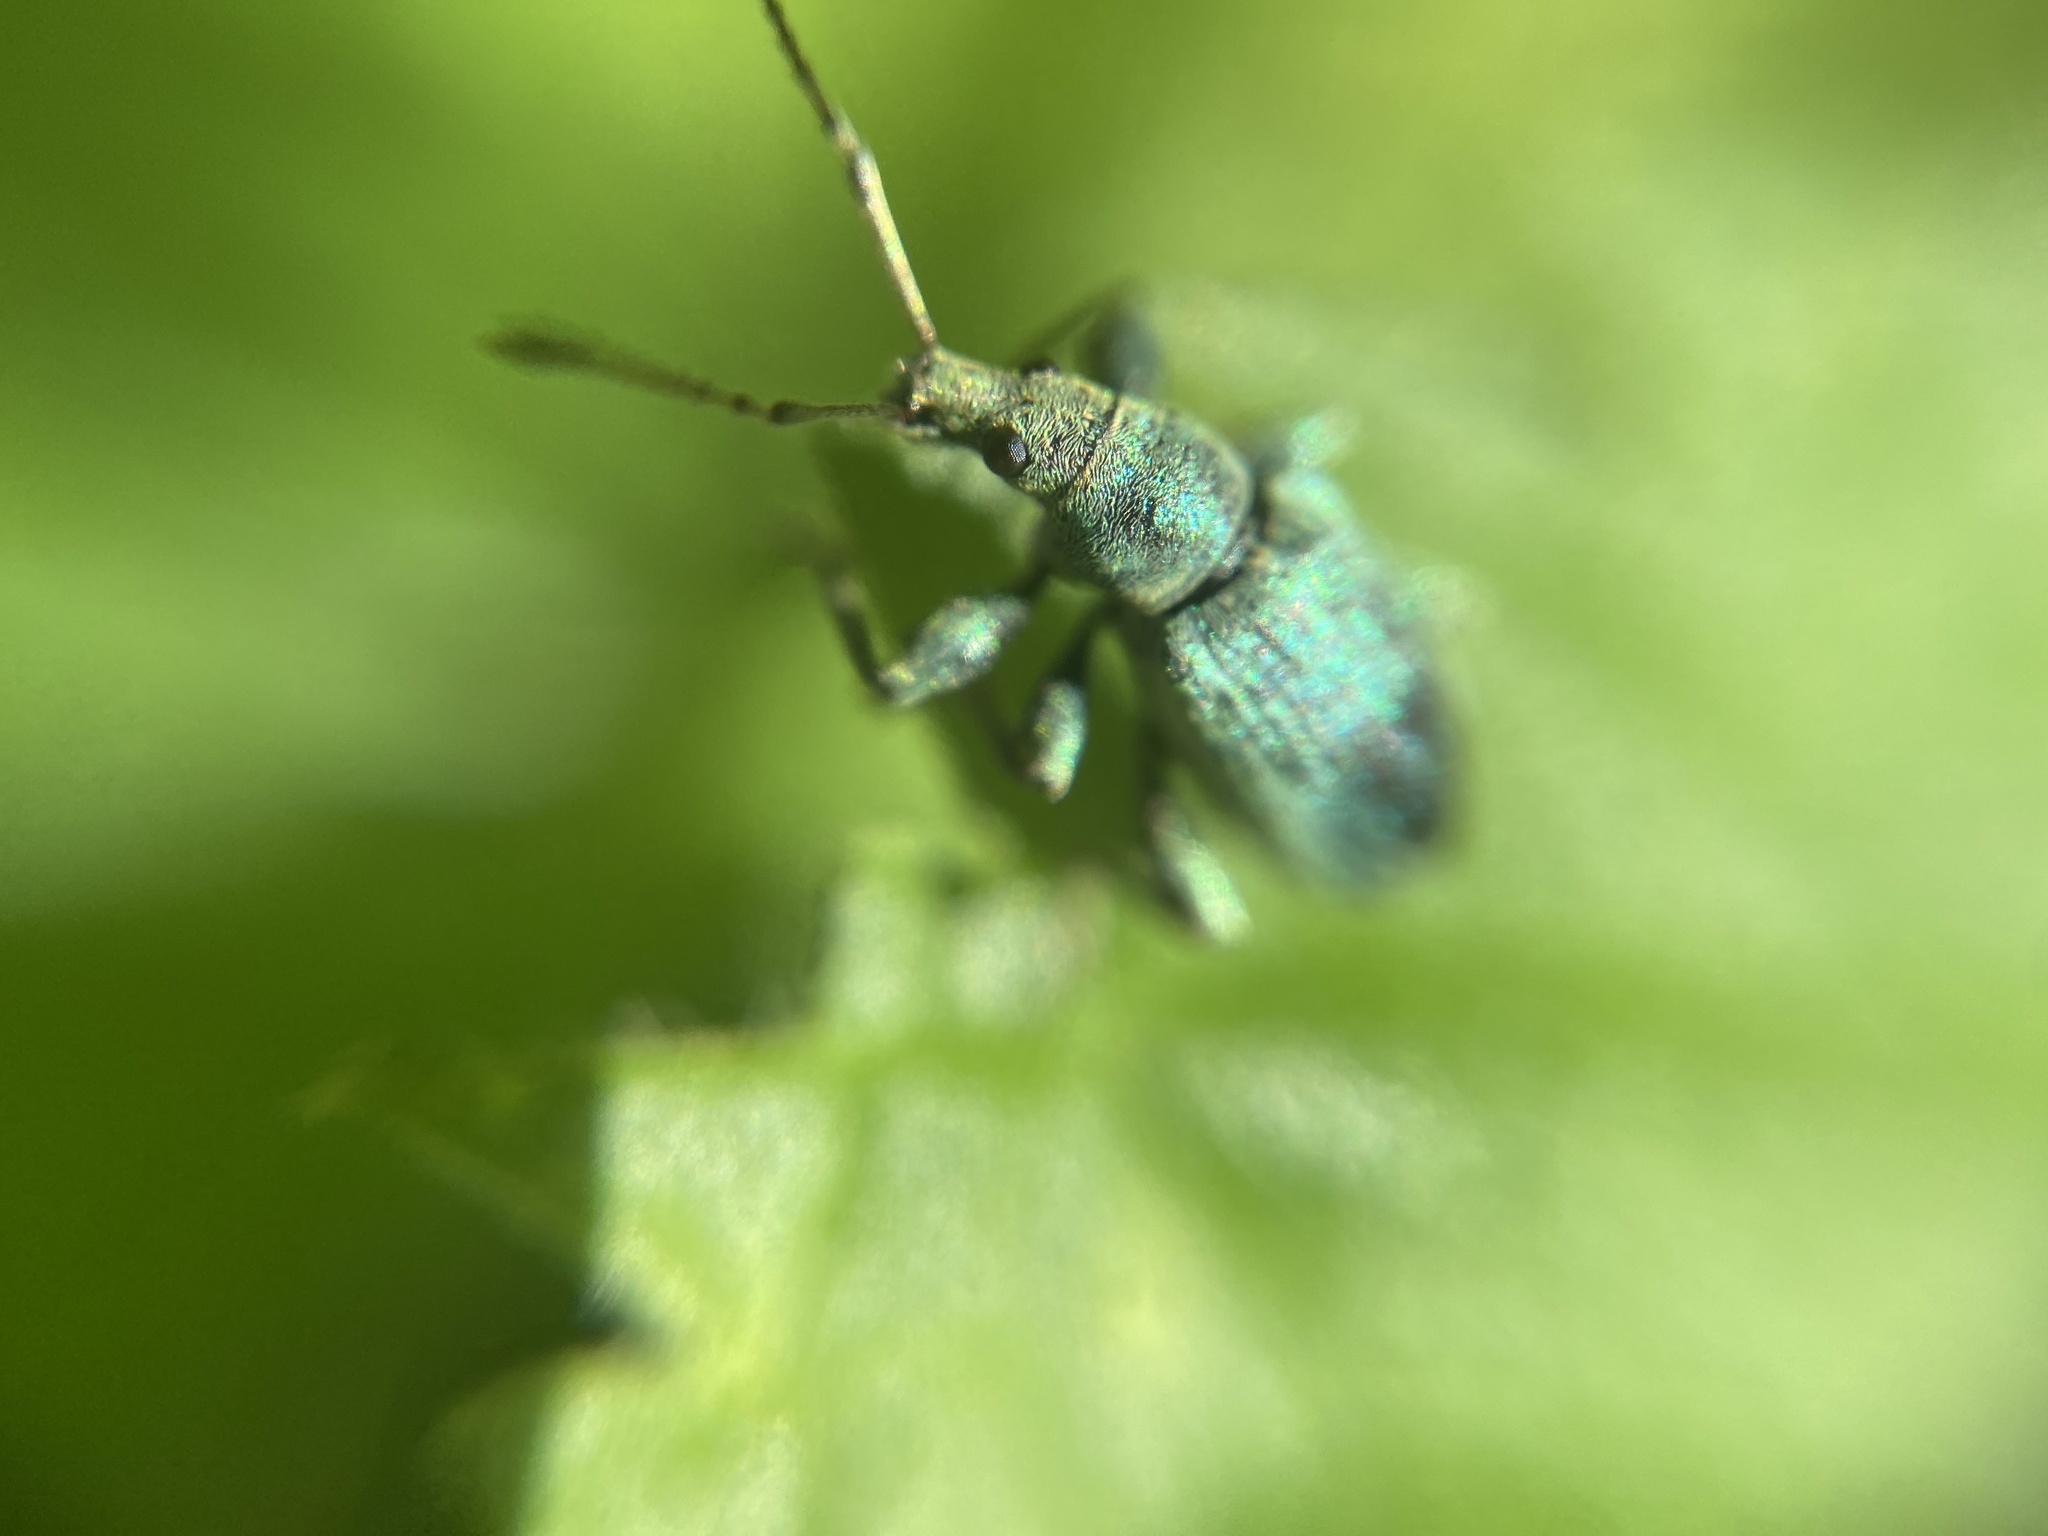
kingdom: Animalia
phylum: Arthropoda
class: Insecta
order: Coleoptera
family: Curculionidae
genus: Phyllobius
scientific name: Phyllobius pomaceus
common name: Green nettle weevil
